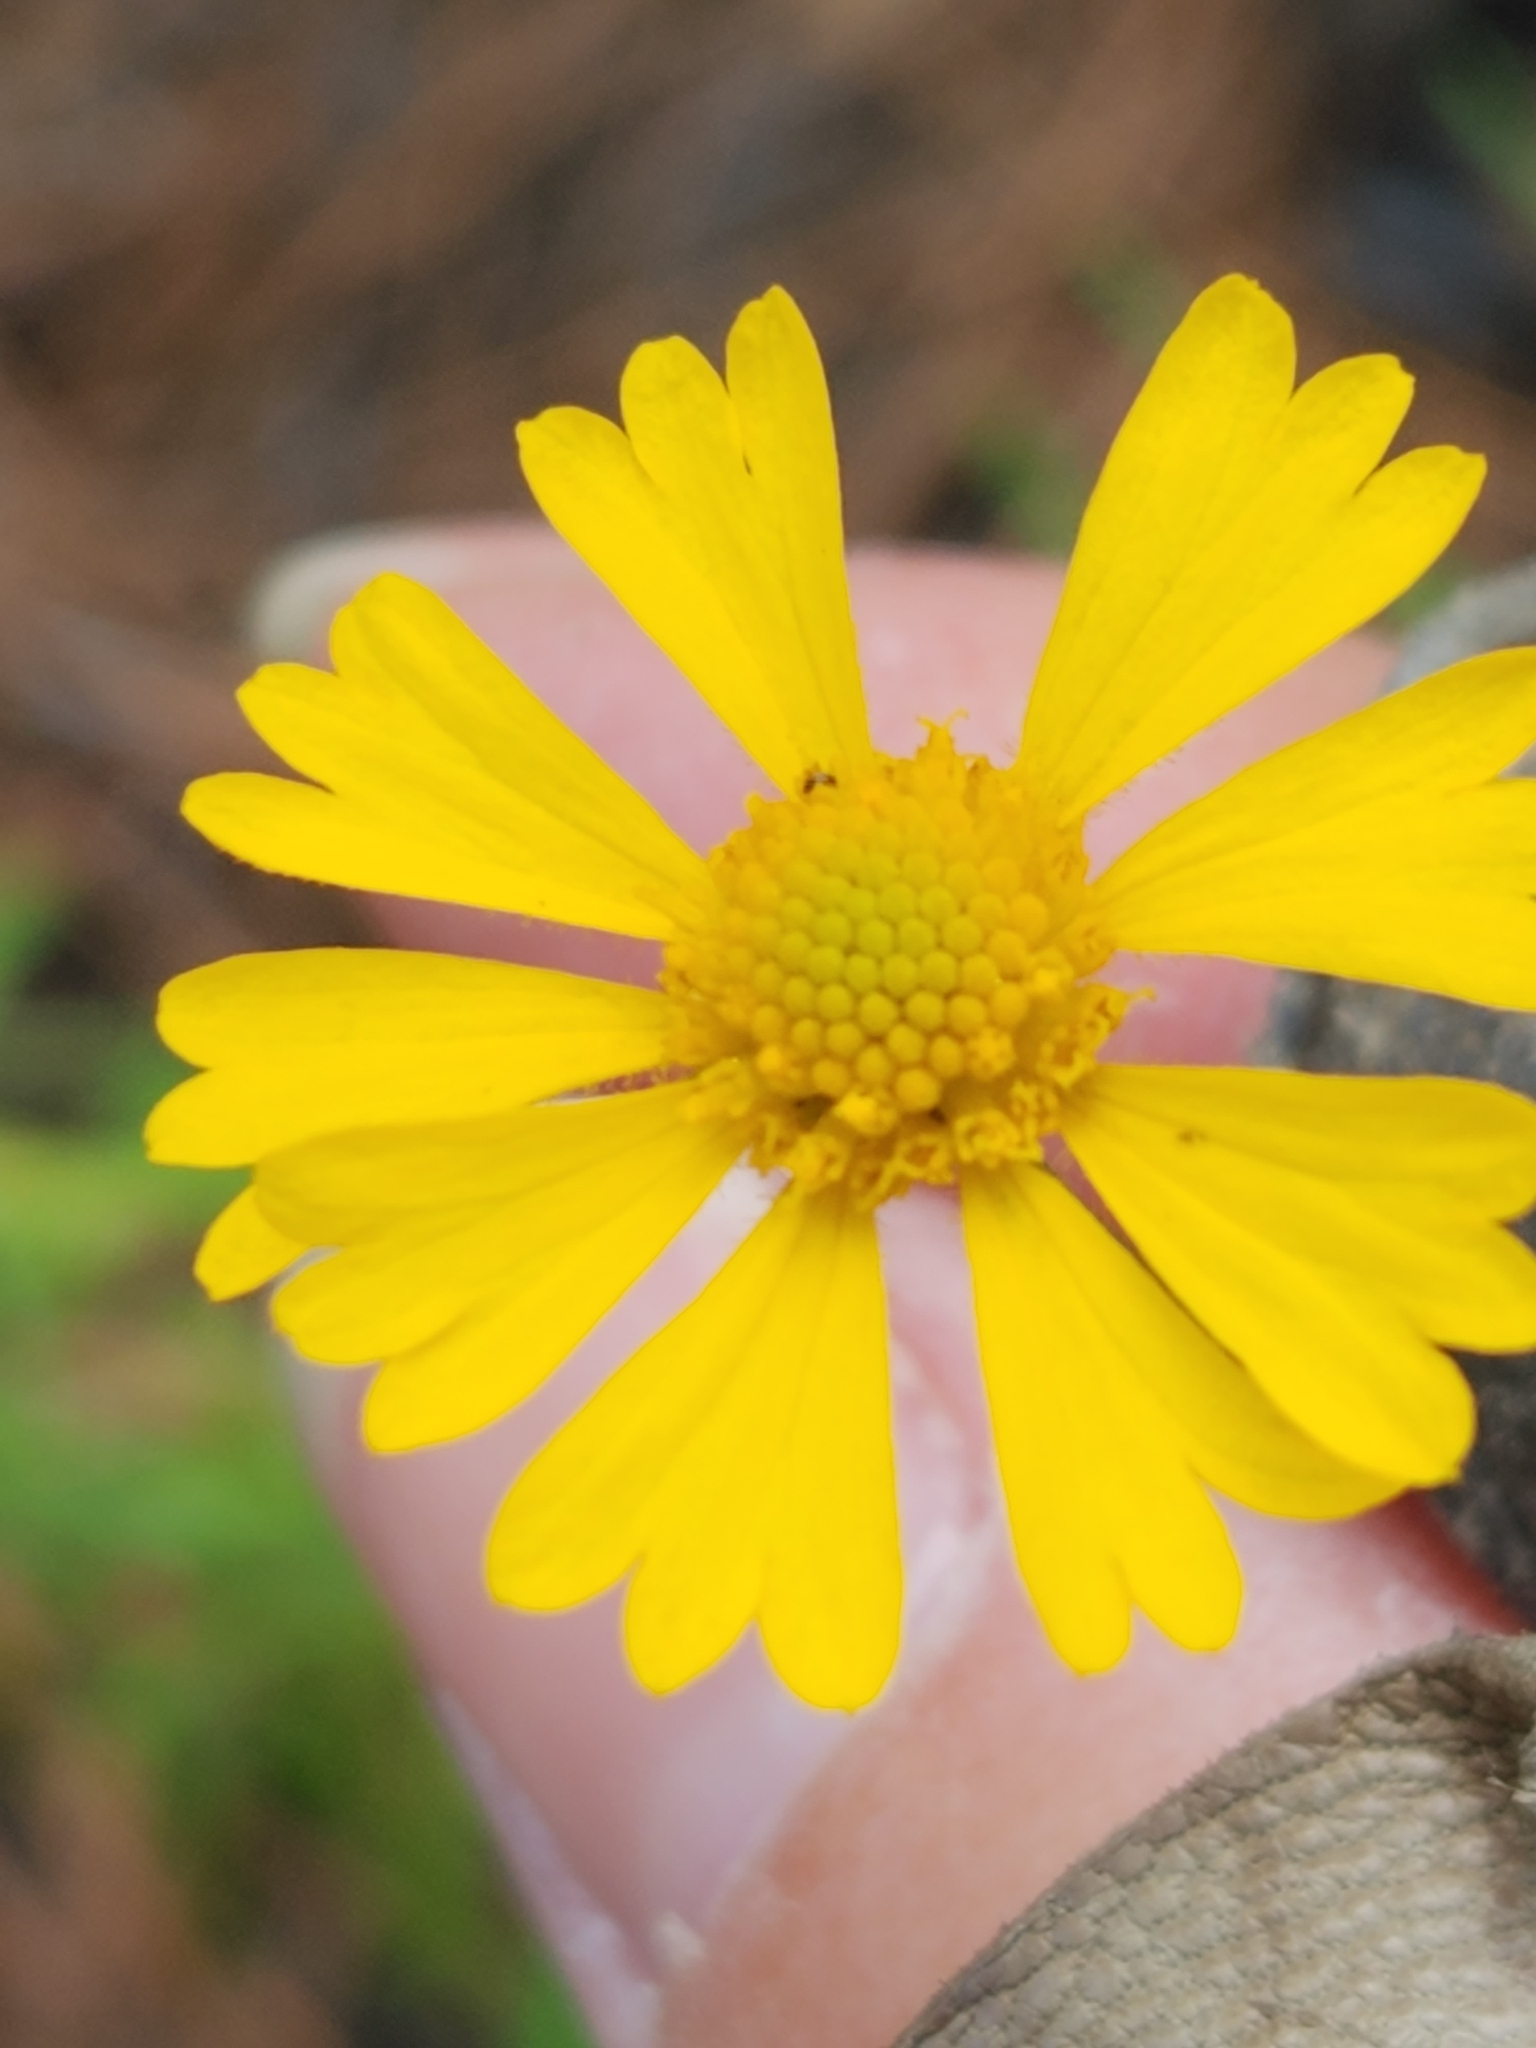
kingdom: Plantae
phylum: Tracheophyta
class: Magnoliopsida
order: Asterales
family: Asteraceae
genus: Helenium
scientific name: Helenium amarum
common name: Bitter sneezeweed
